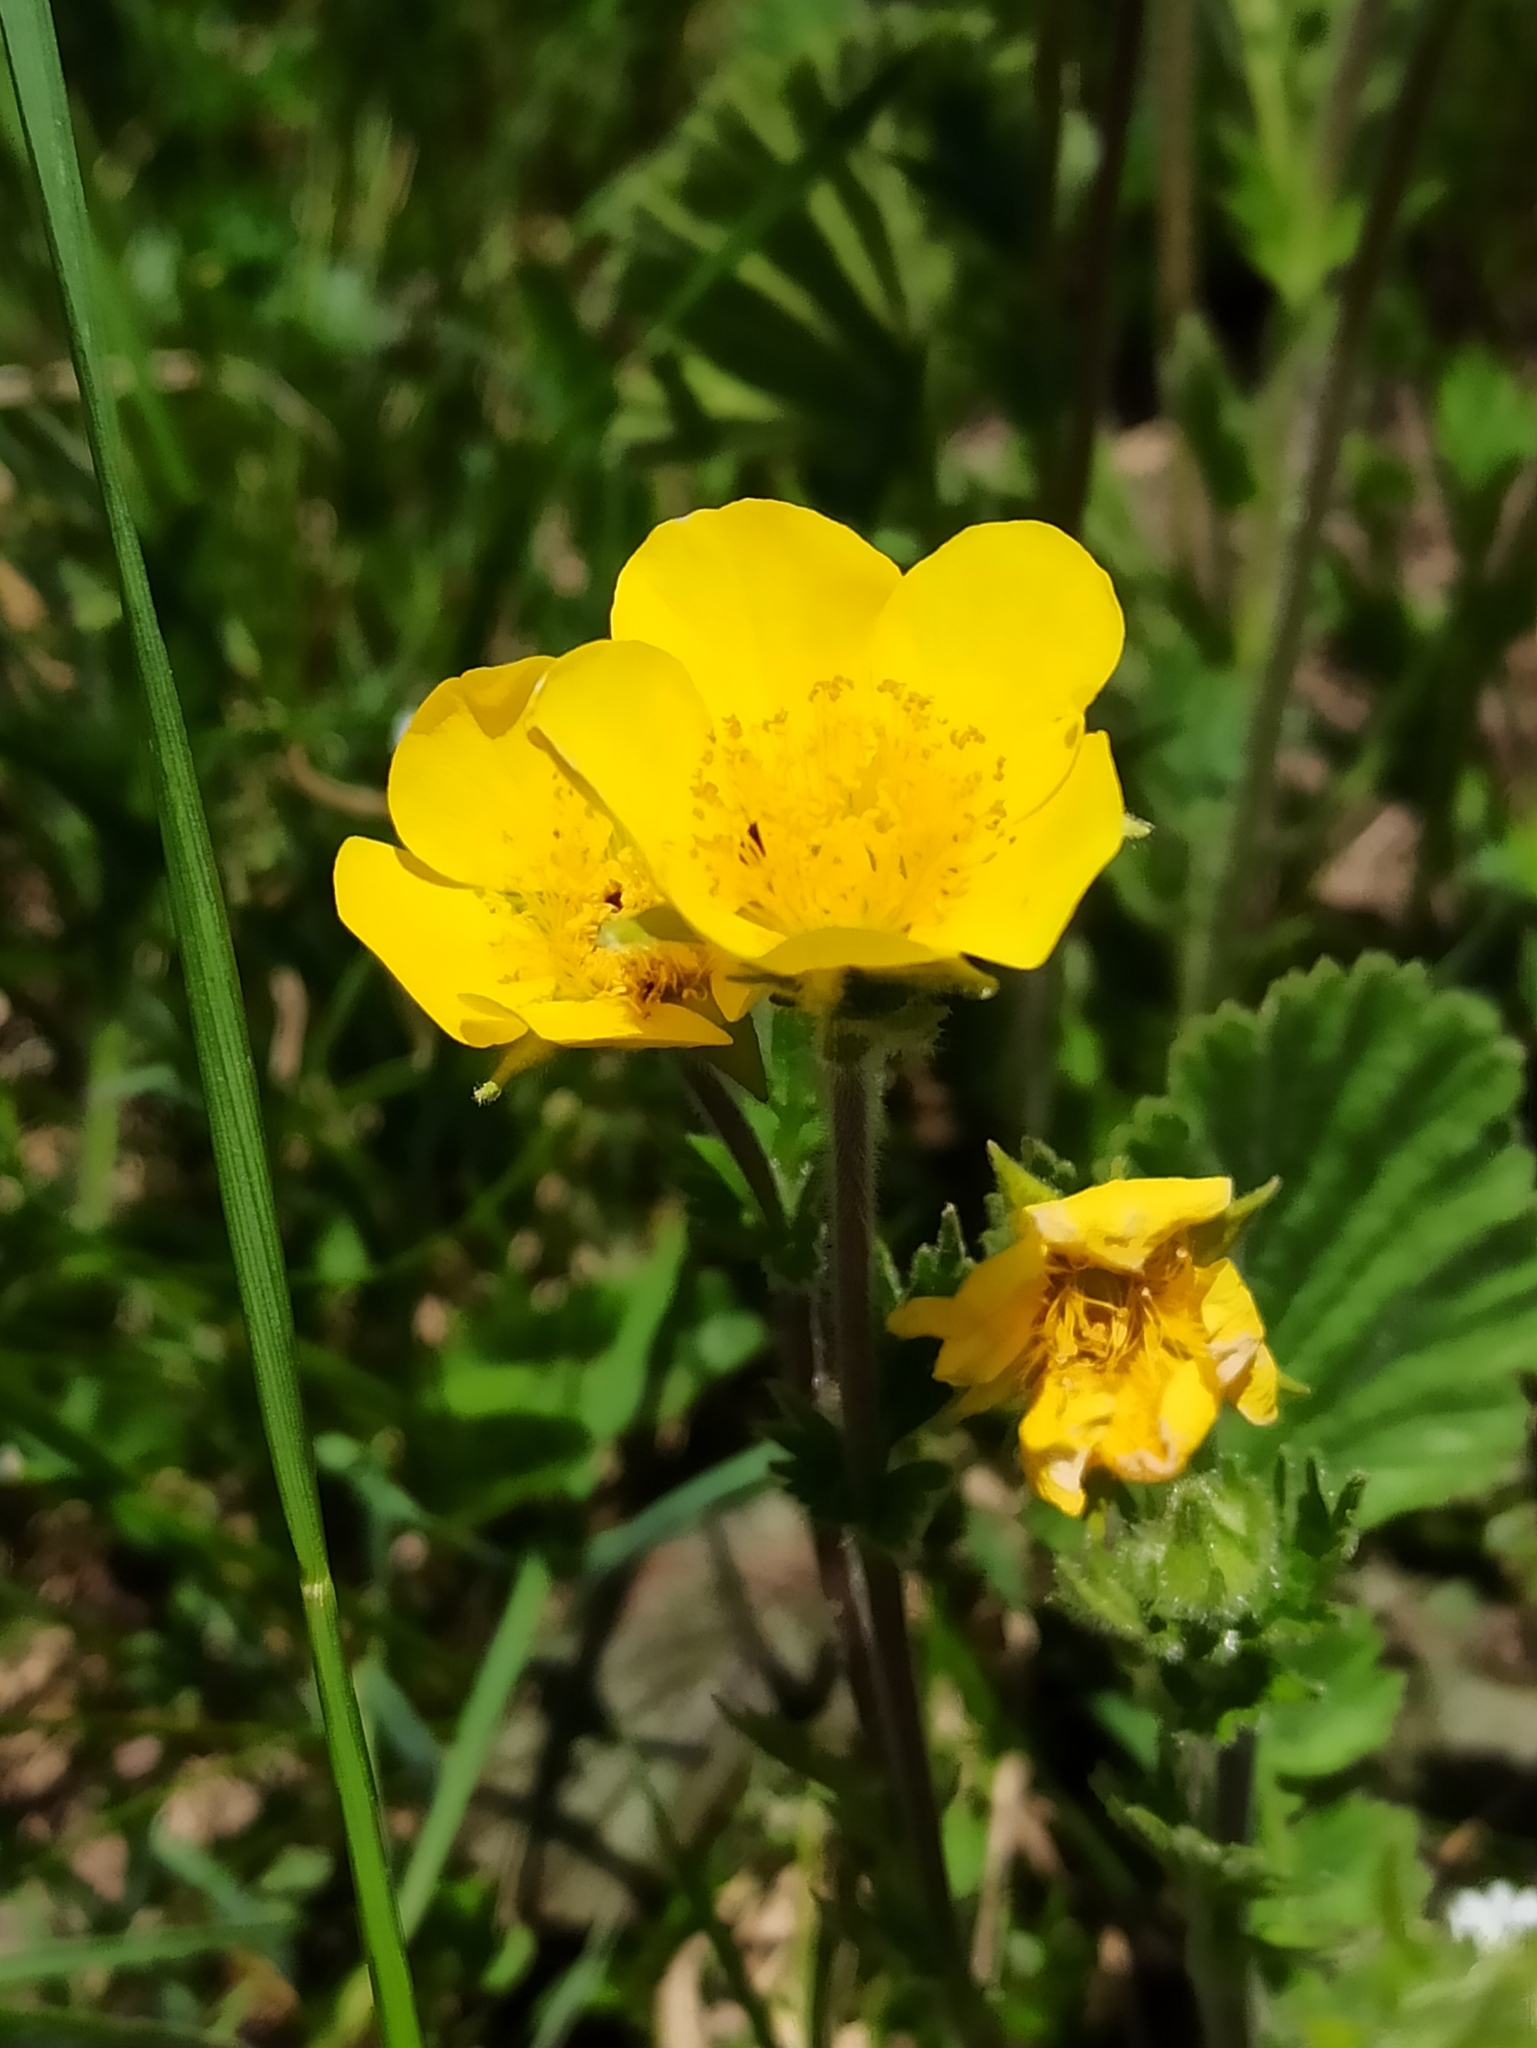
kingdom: Plantae
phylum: Tracheophyta
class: Magnoliopsida
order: Rosales
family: Rosaceae
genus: Geum
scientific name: Geum montanum
